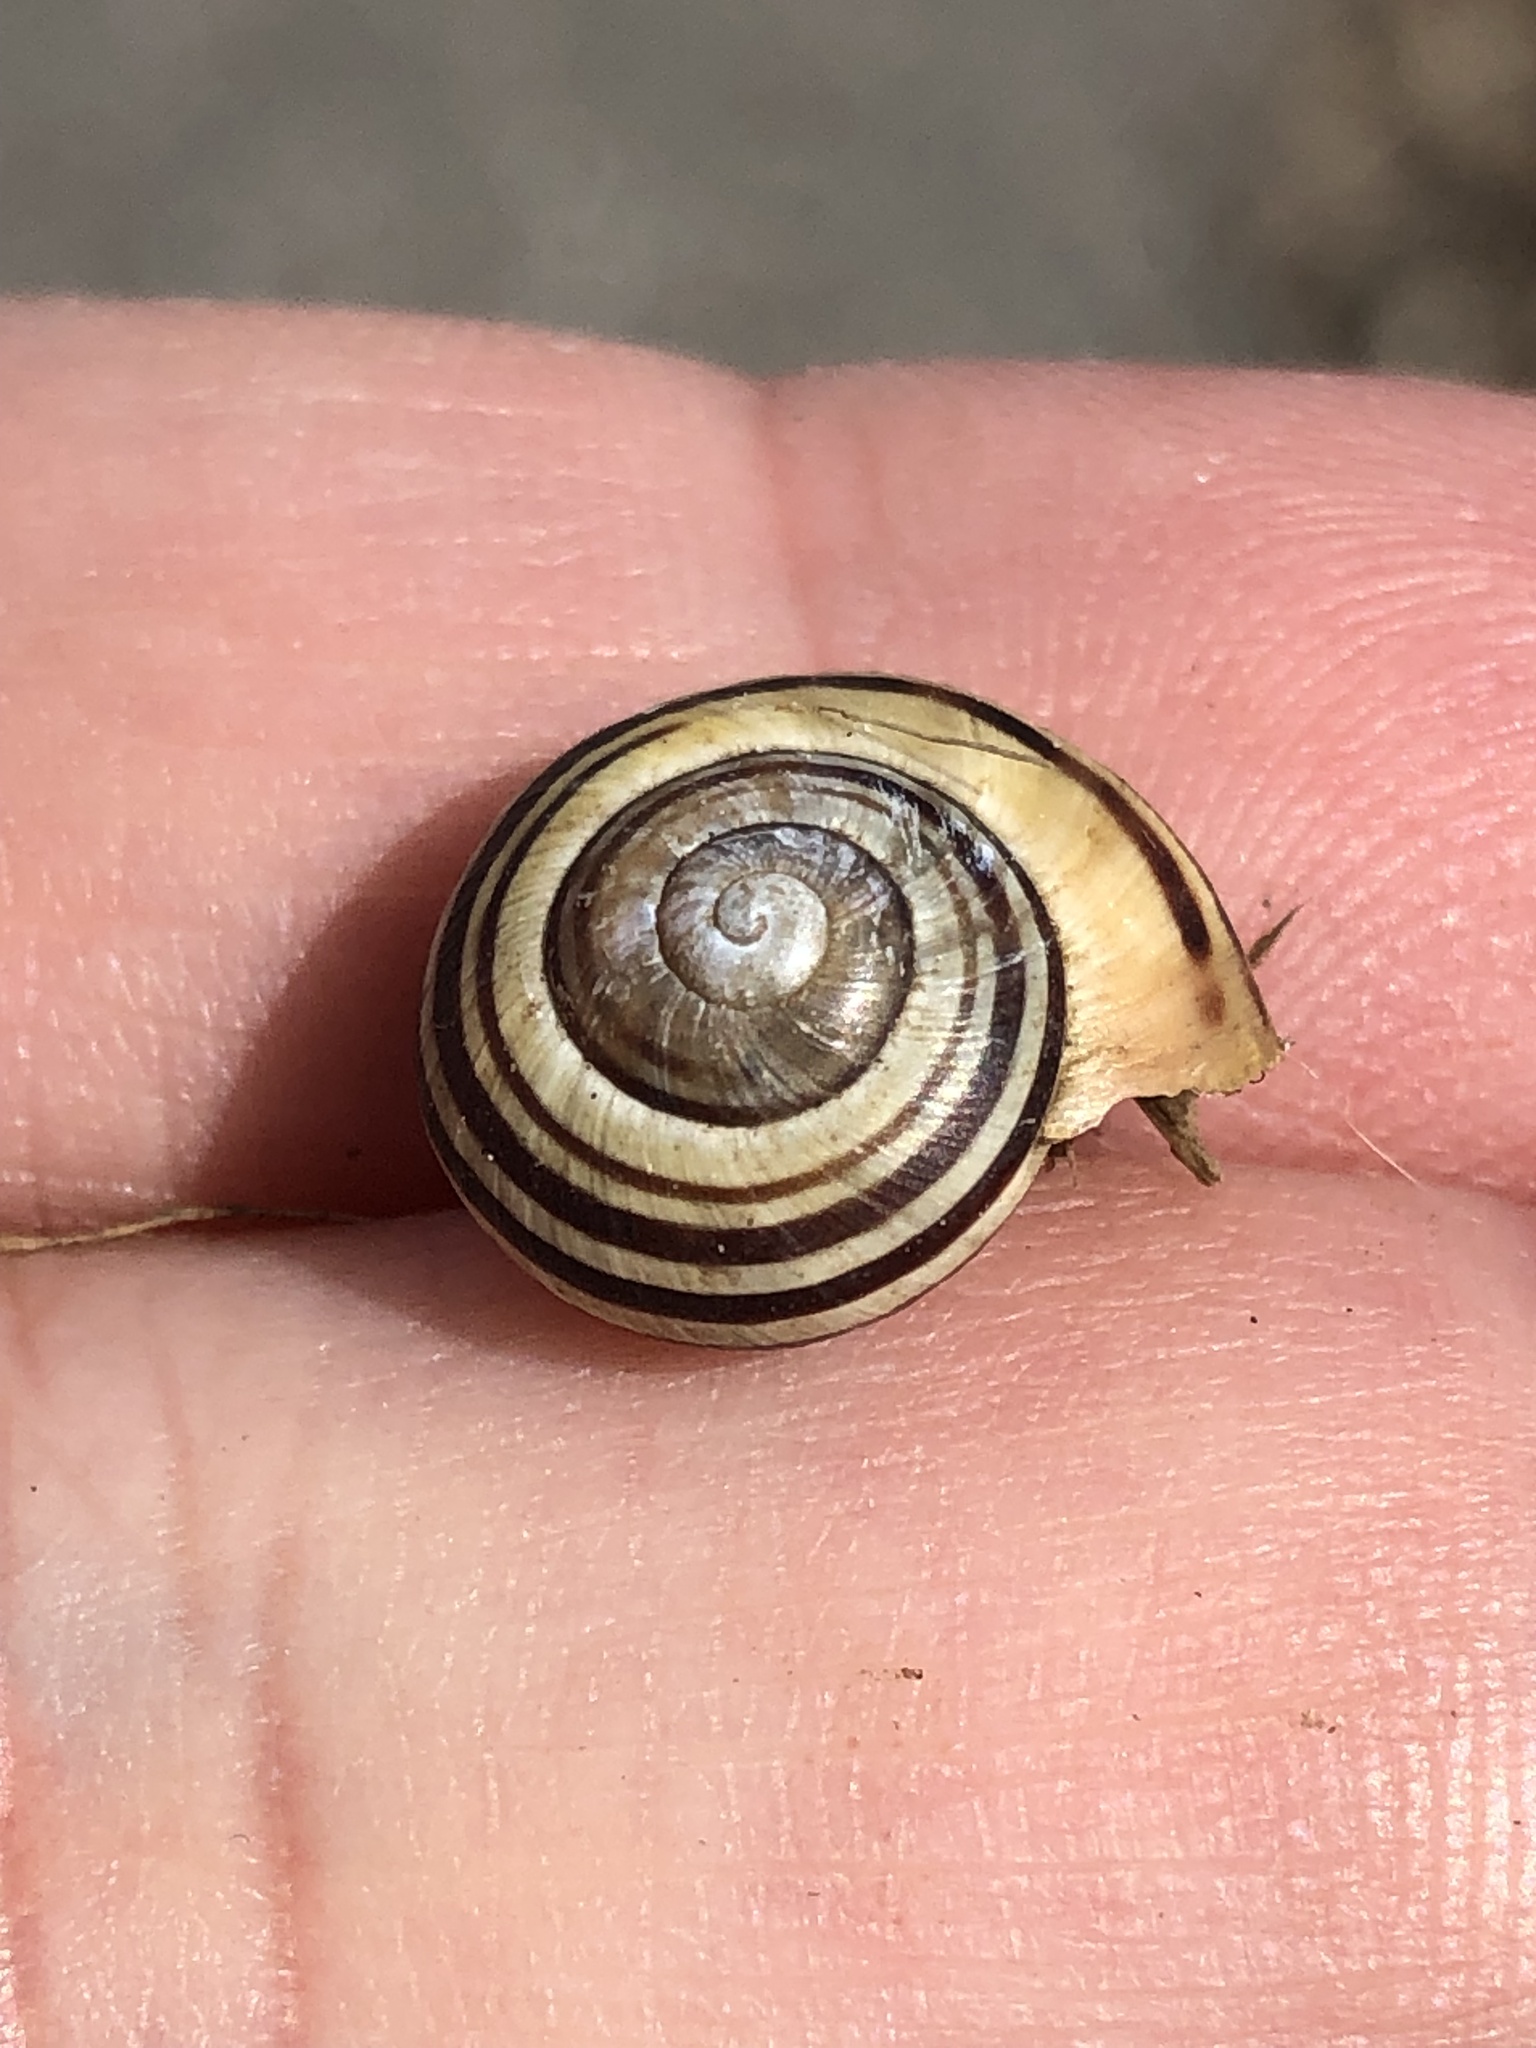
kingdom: Animalia
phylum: Mollusca
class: Gastropoda
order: Stylommatophora
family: Helicidae
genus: Cepaea
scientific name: Cepaea nemoralis
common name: Grovesnail
